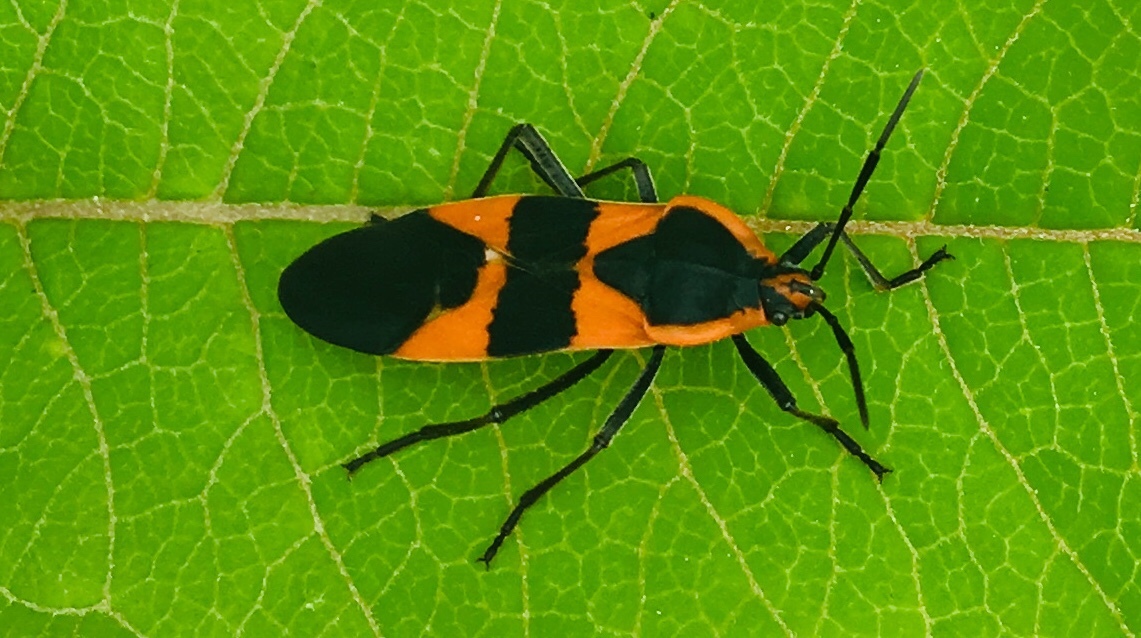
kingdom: Animalia
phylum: Arthropoda
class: Insecta
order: Hemiptera
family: Lygaeidae
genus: Oncopeltus
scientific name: Oncopeltus fasciatus
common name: Large milkweed bug
